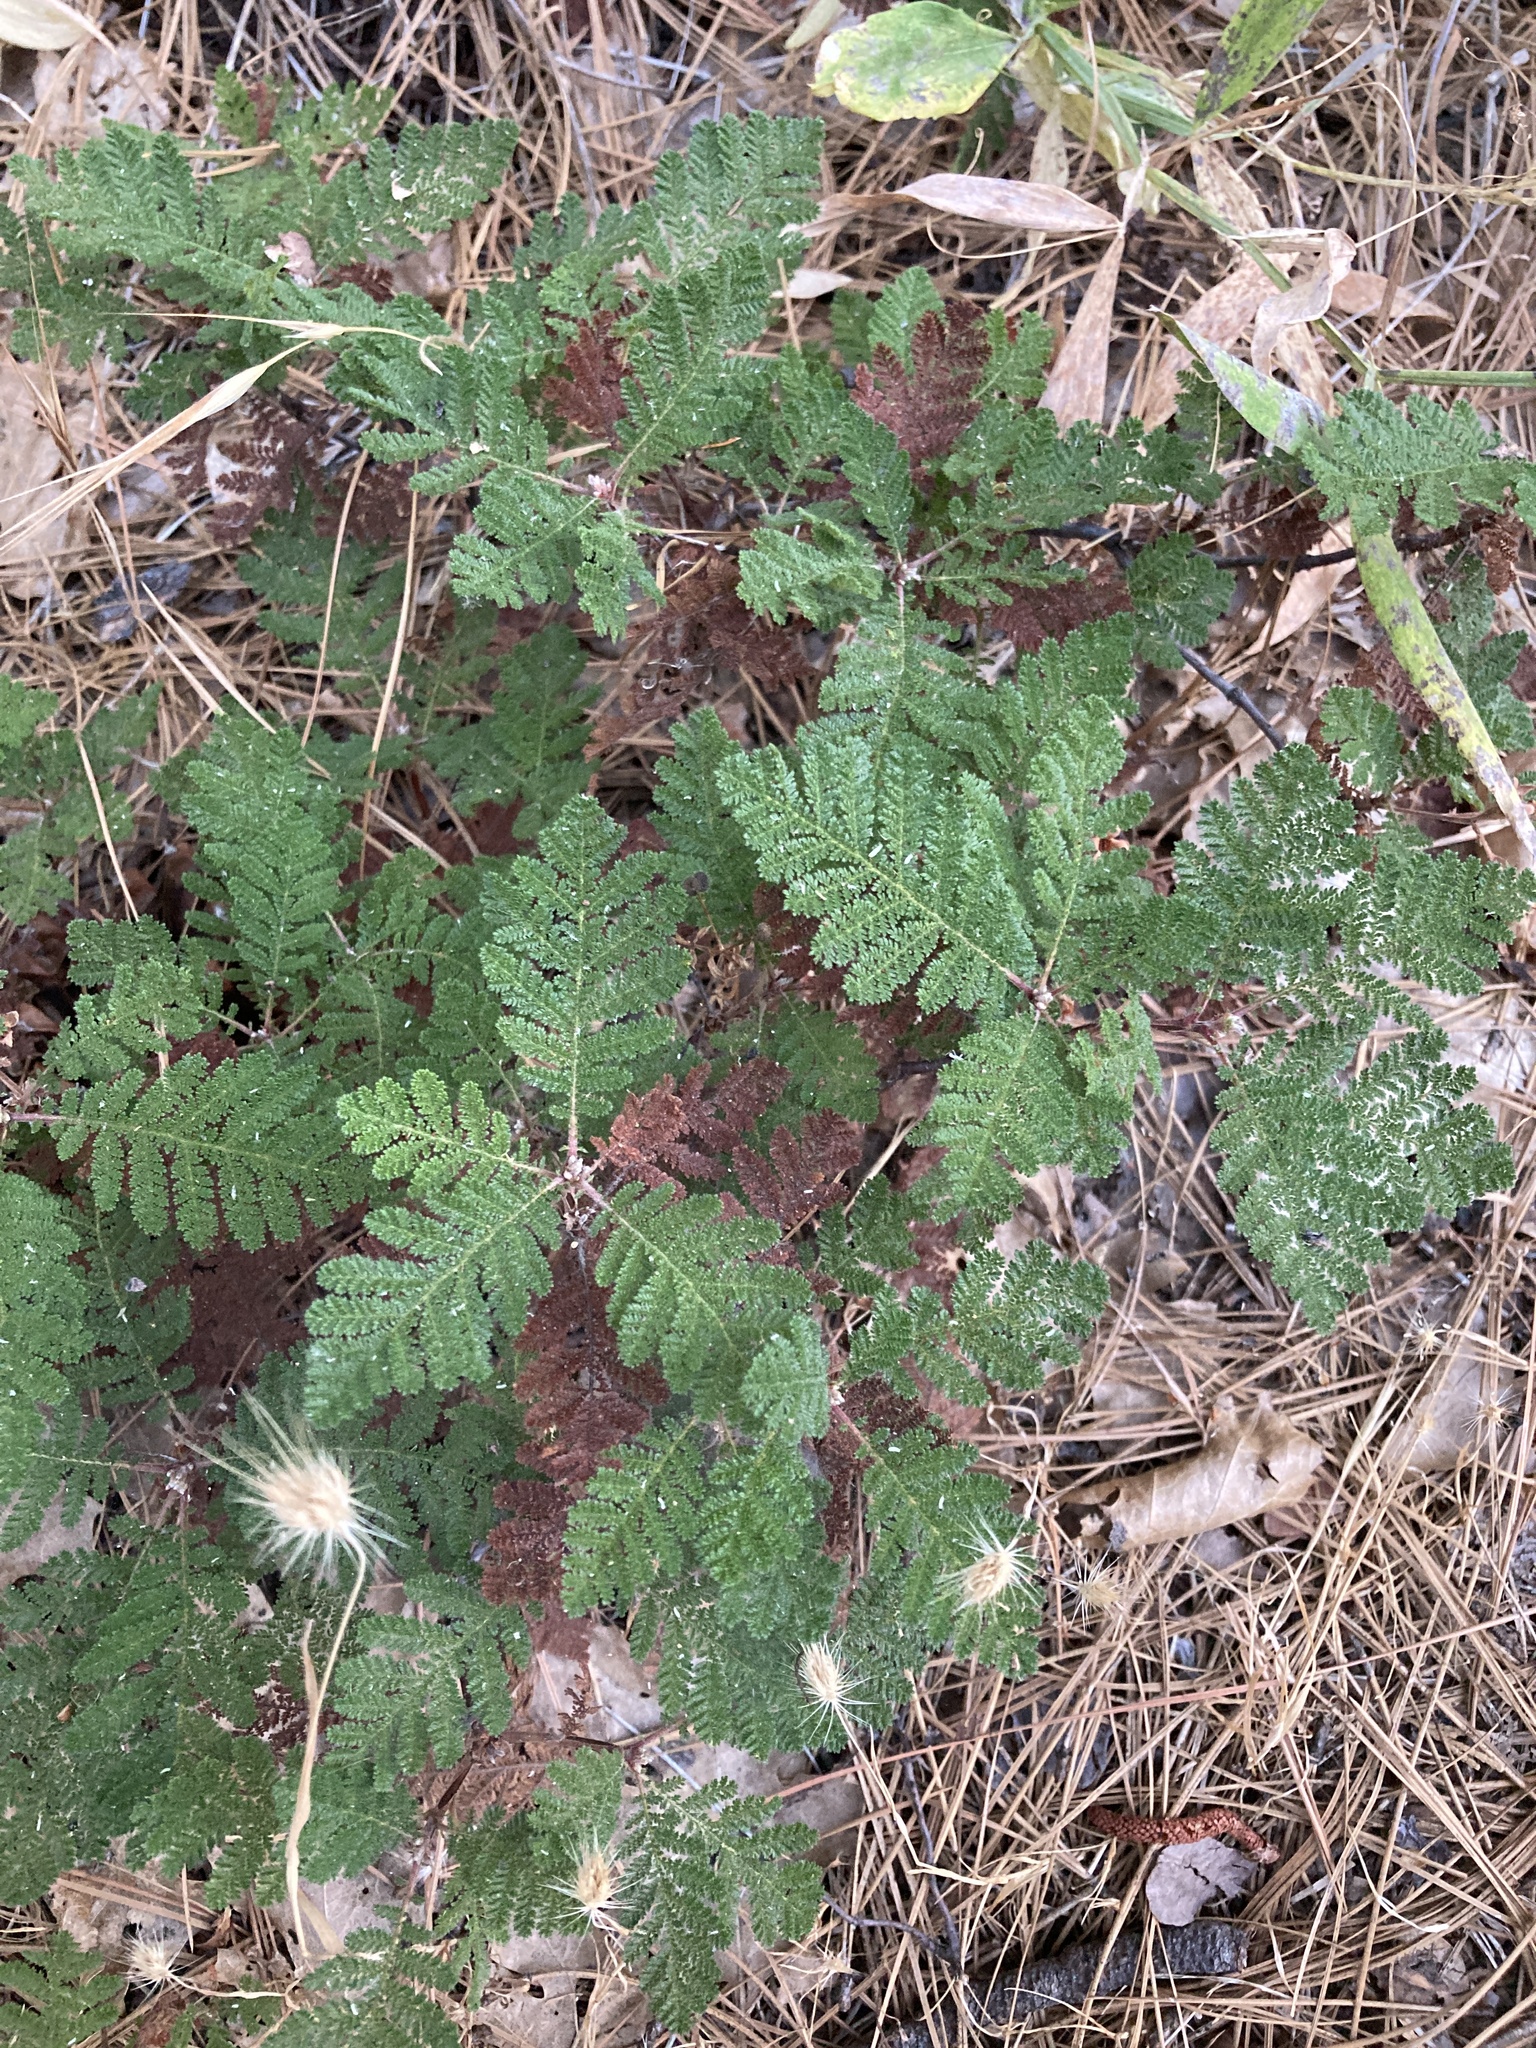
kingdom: Plantae
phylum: Tracheophyta
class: Magnoliopsida
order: Rosales
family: Rosaceae
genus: Chamaebatia
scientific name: Chamaebatia foliolosa
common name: Mountain misery
